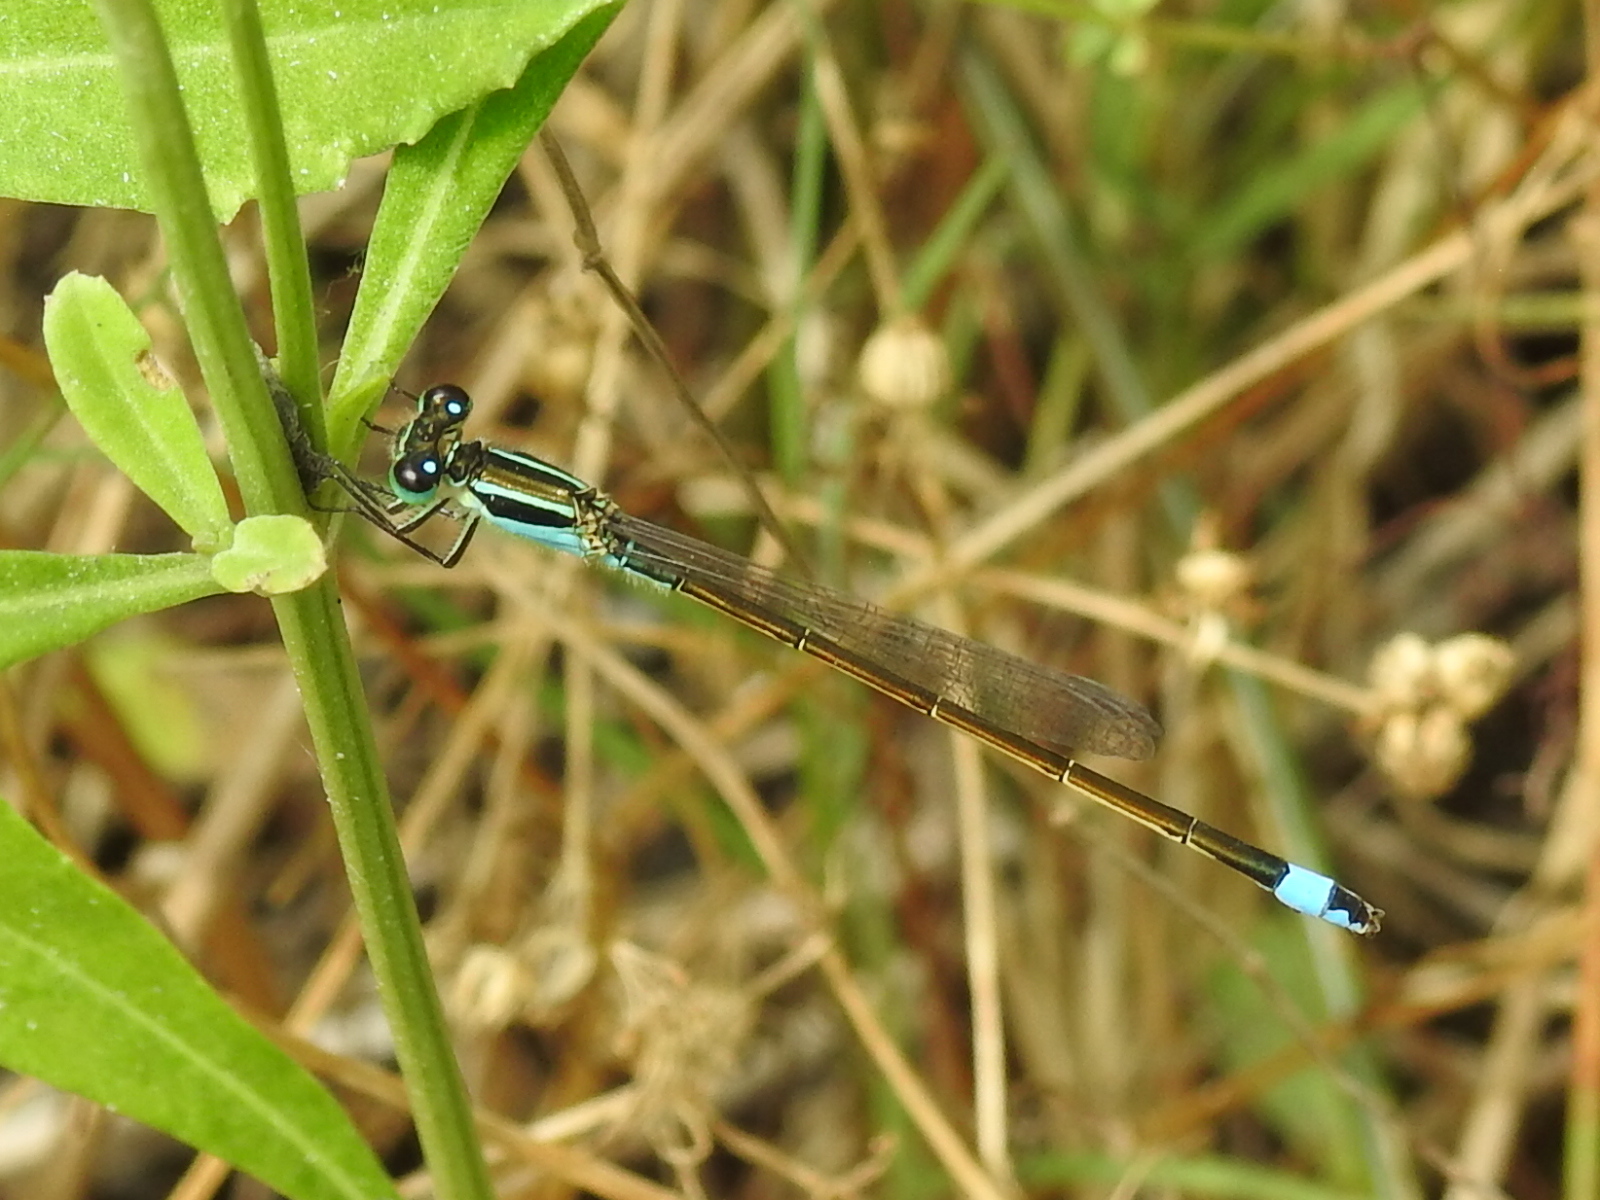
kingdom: Animalia
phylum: Arthropoda
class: Insecta
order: Odonata
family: Coenagrionidae
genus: Ischnura
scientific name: Ischnura ramburii
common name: Rambur's forktail
